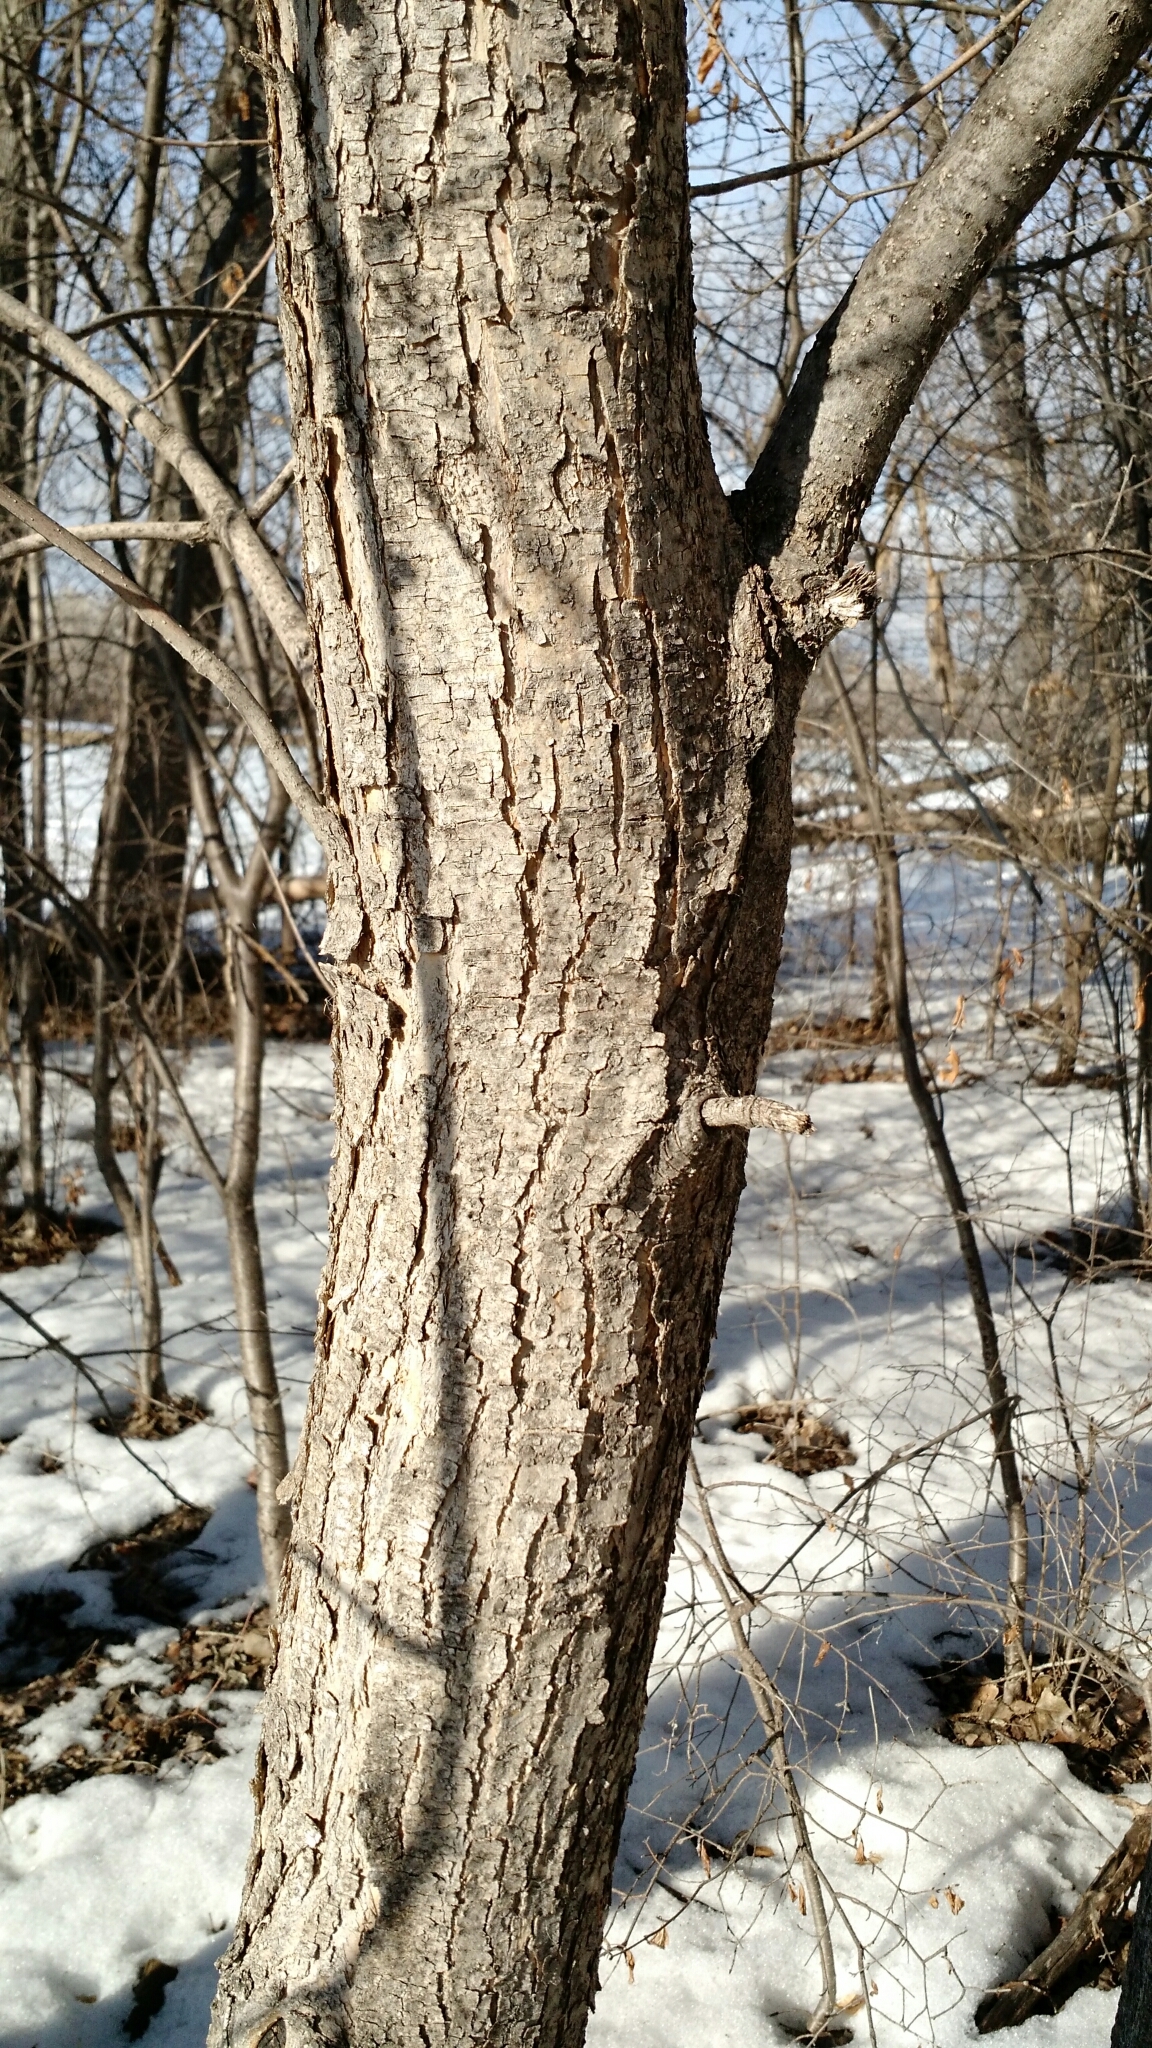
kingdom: Plantae
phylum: Tracheophyta
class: Magnoliopsida
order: Lamiales
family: Oleaceae
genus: Fraxinus
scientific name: Fraxinus pennsylvanica
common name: Green ash
